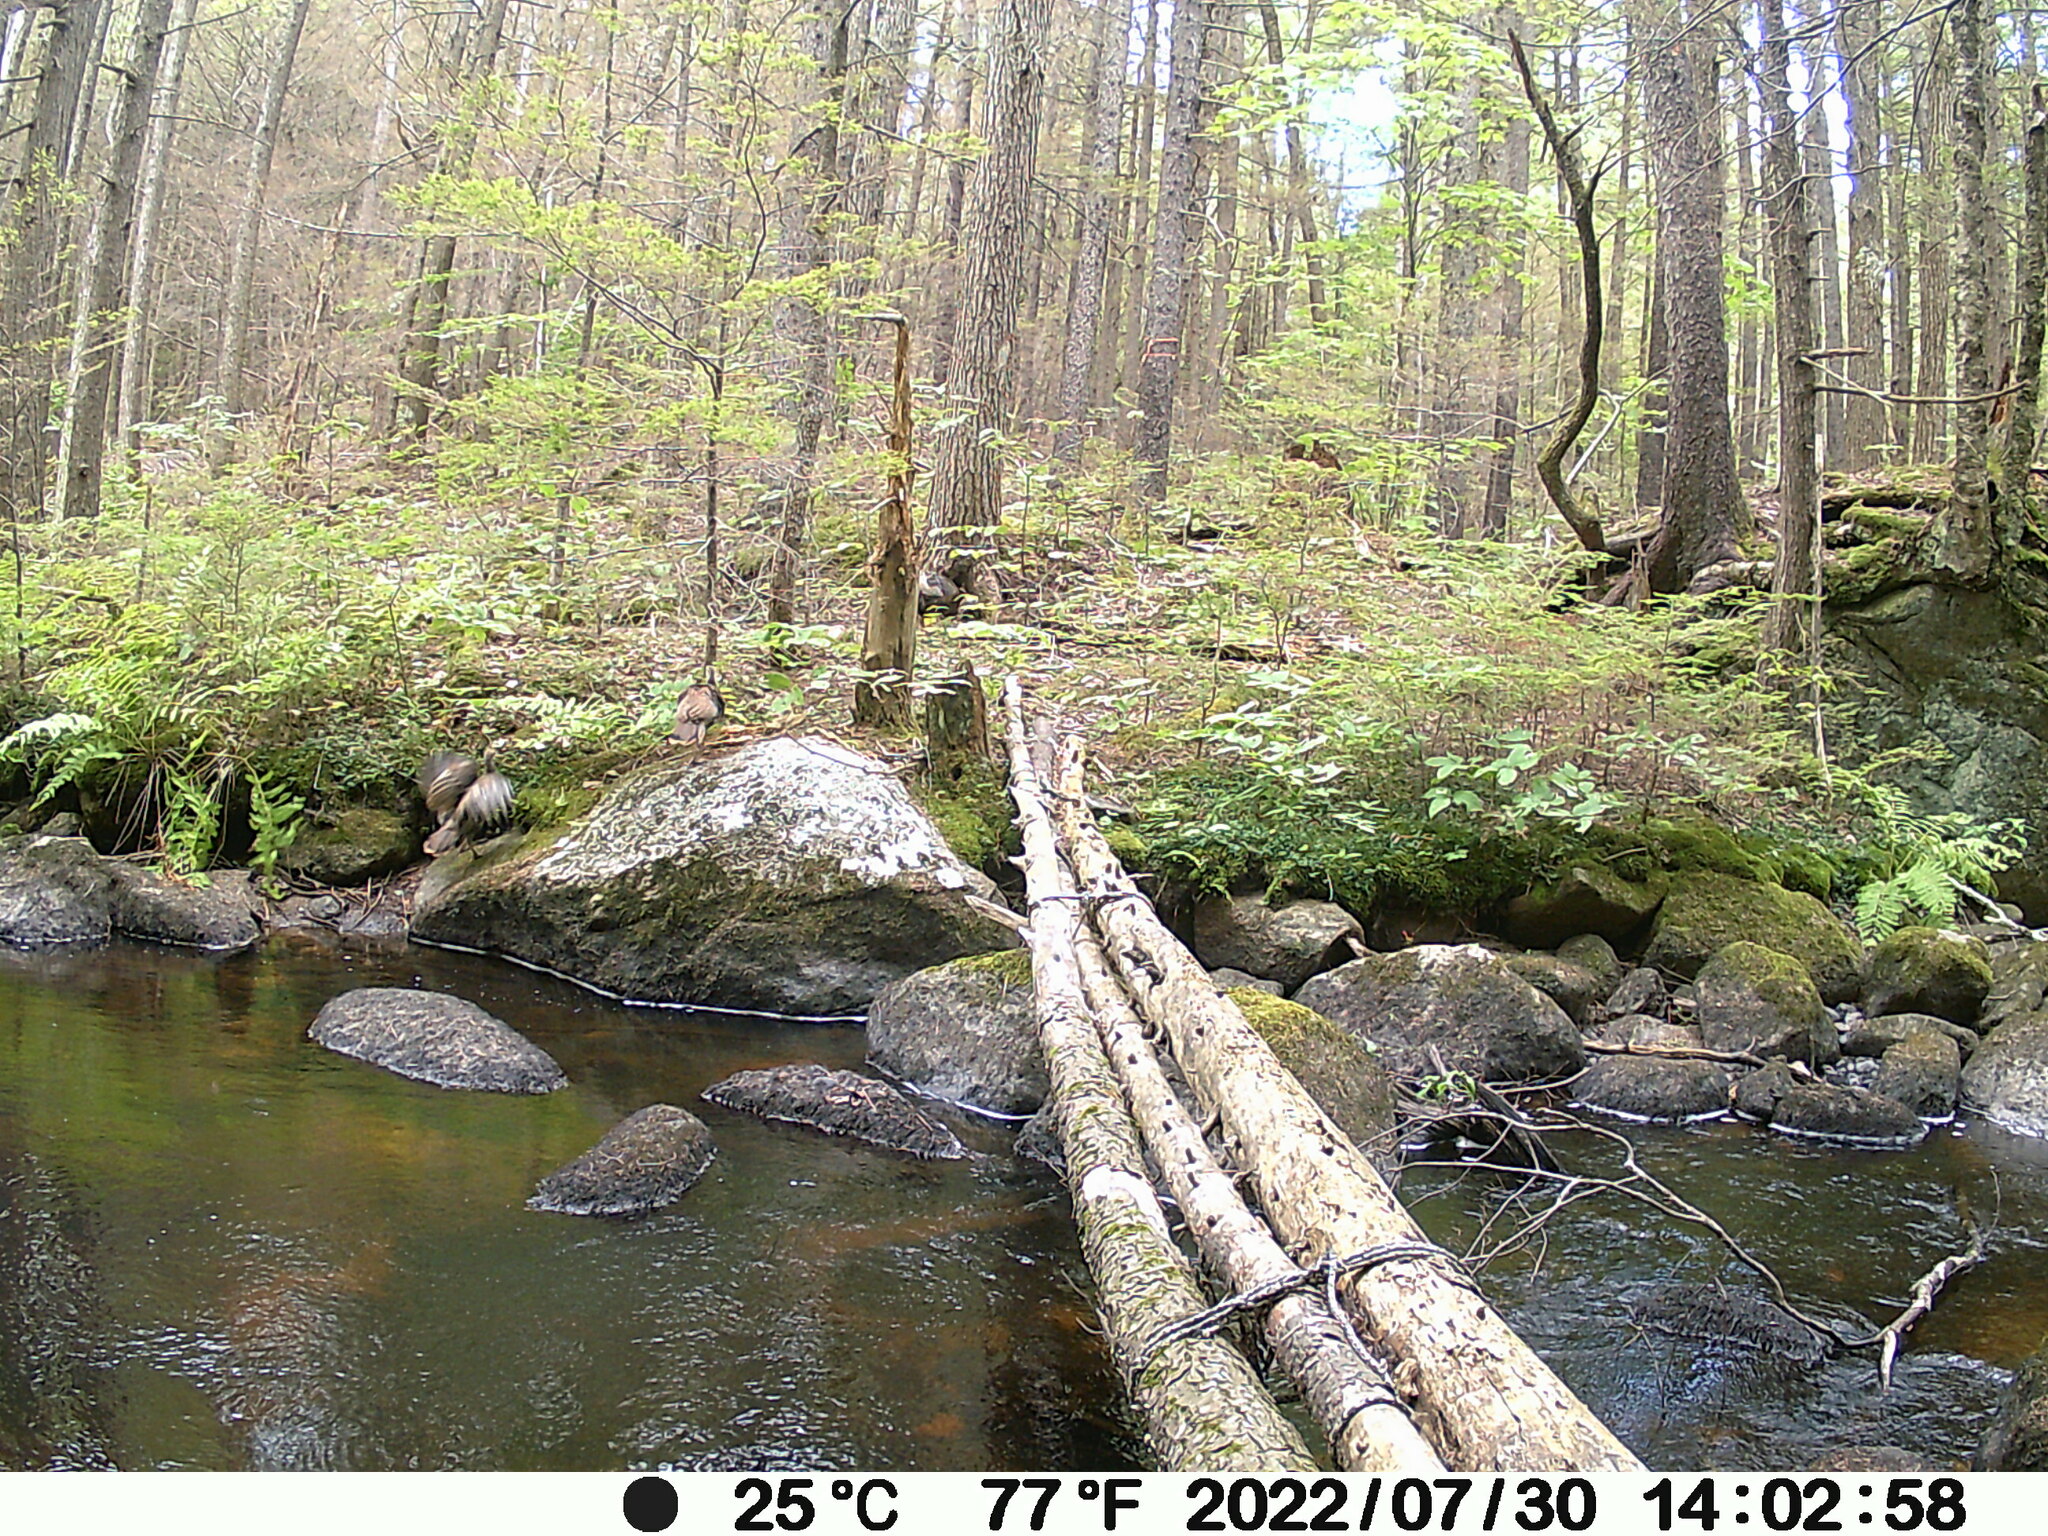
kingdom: Animalia
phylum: Chordata
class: Aves
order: Galliformes
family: Phasianidae
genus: Meleagris
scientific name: Meleagris gallopavo
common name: Wild turkey
